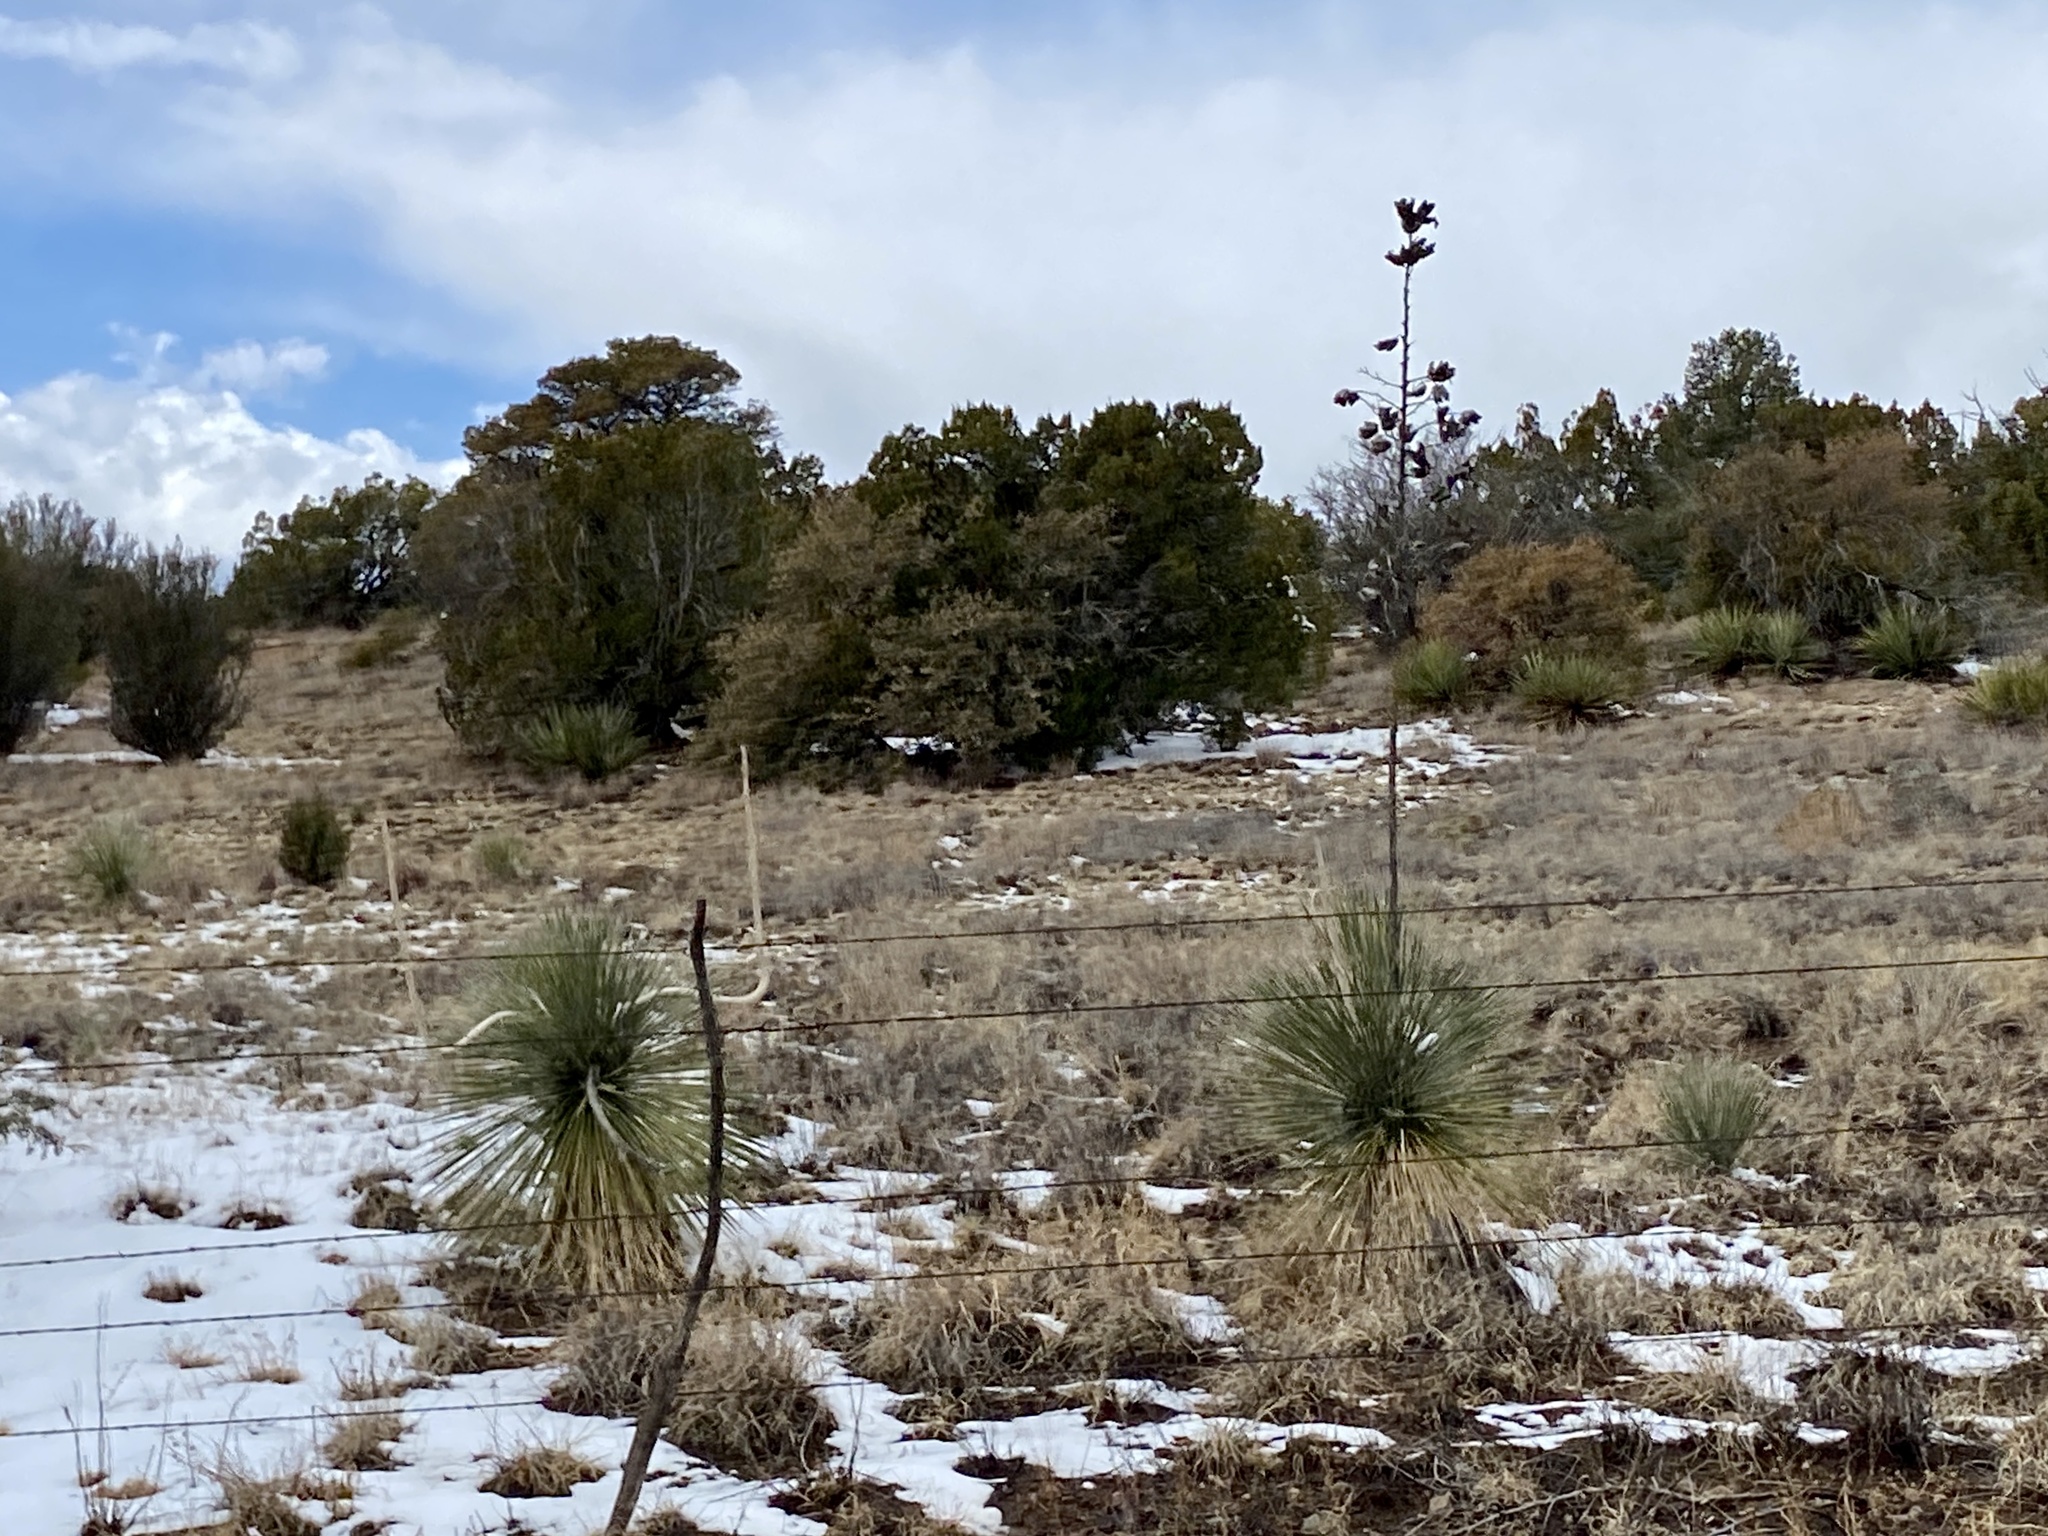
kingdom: Plantae
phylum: Tracheophyta
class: Liliopsida
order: Asparagales
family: Asparagaceae
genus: Yucca
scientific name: Yucca elata
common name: Palmella
